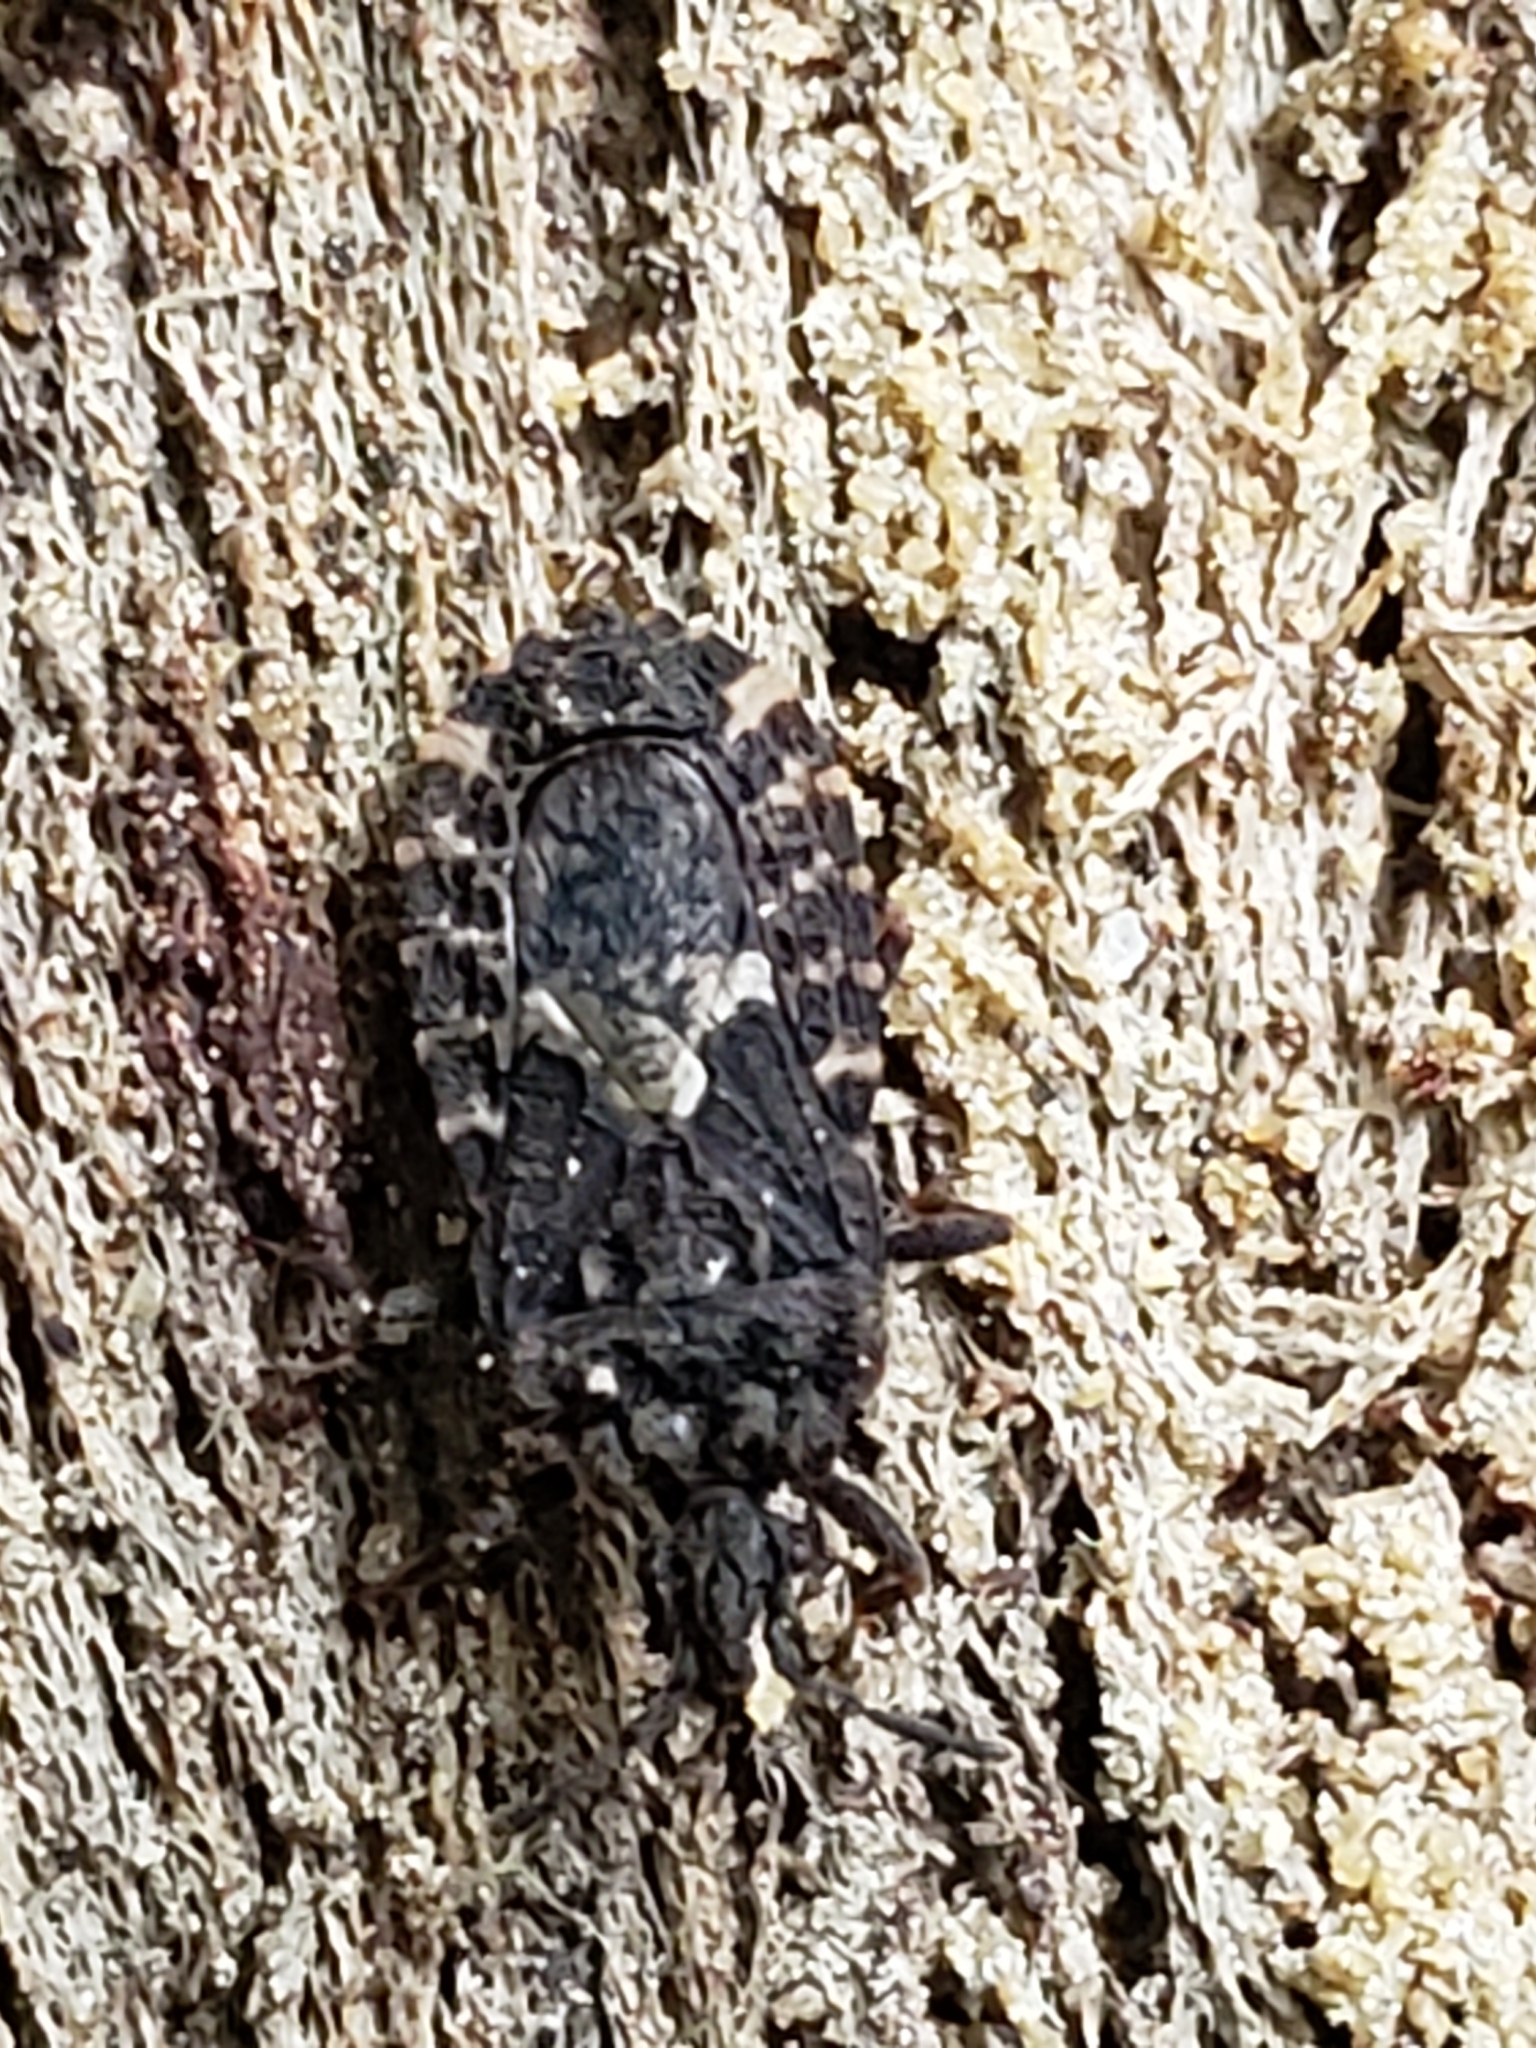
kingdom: Animalia
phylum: Arthropoda
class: Insecta
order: Hemiptera
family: Aradidae
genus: Mezira
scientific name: Mezira
